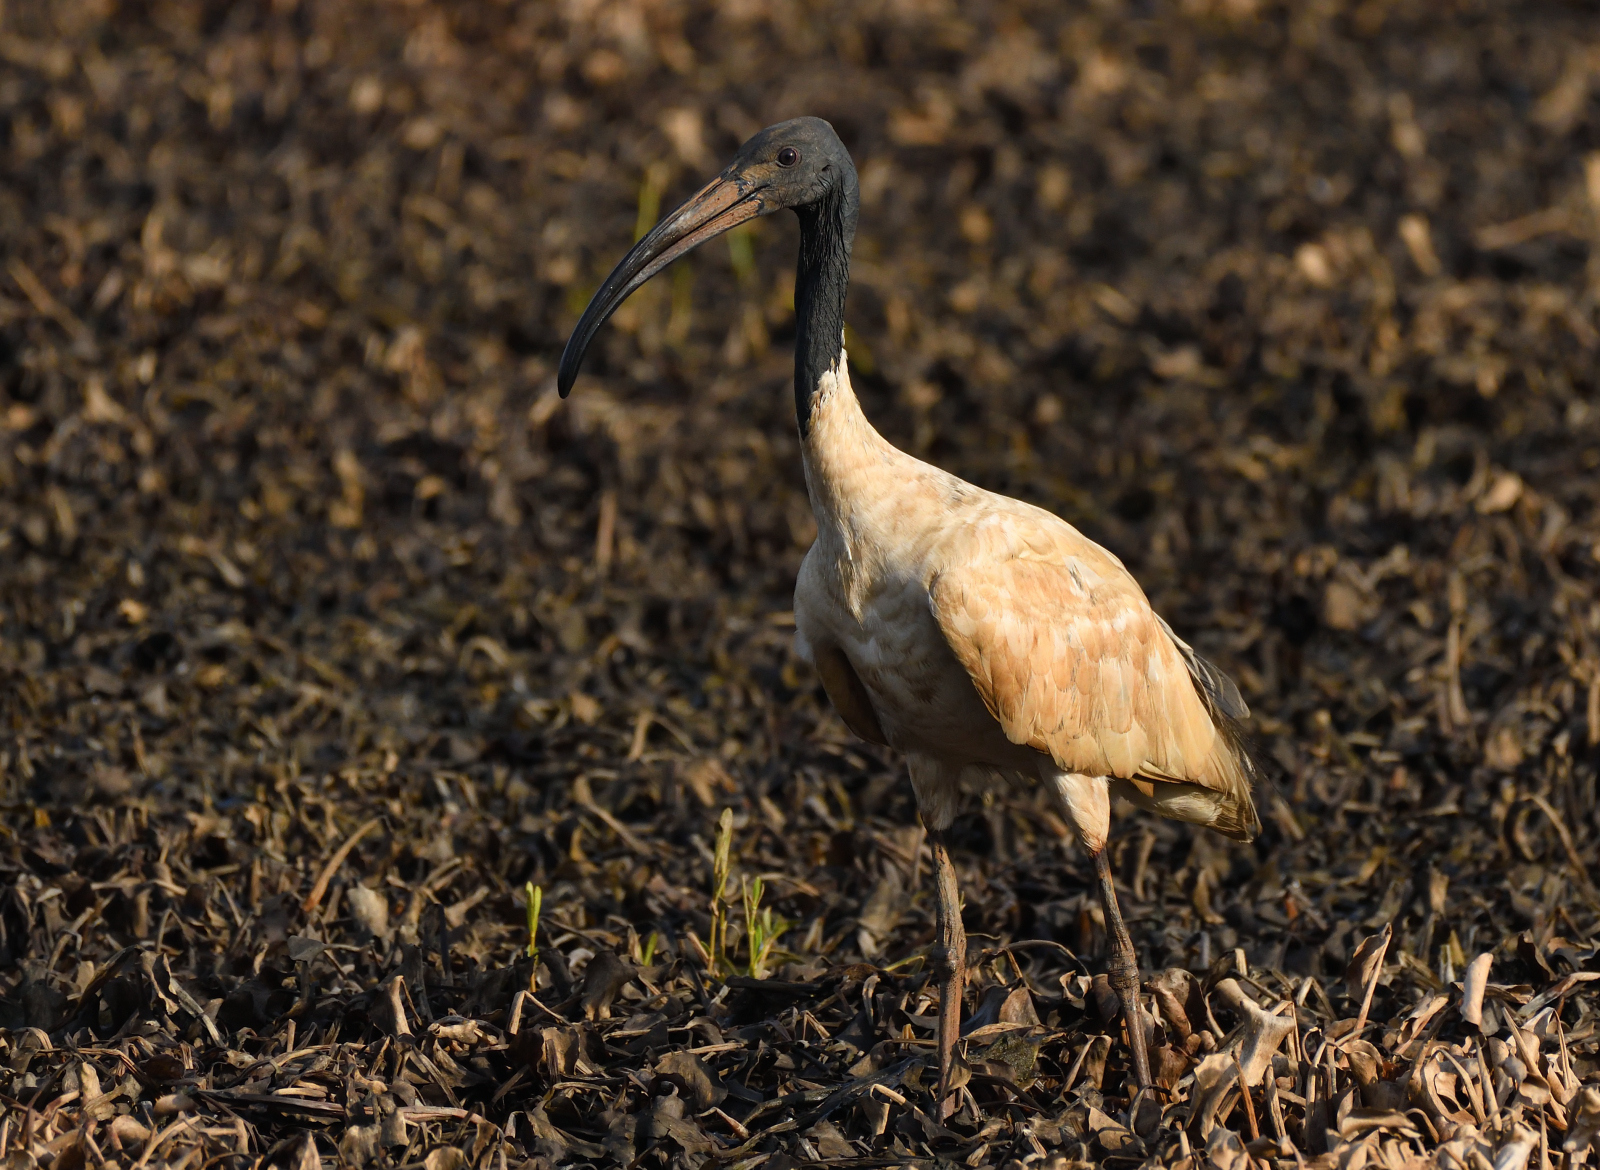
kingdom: Animalia
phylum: Chordata
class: Aves
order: Pelecaniformes
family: Threskiornithidae
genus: Threskiornis
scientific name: Threskiornis melanocephalus
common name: Black-headed ibis
